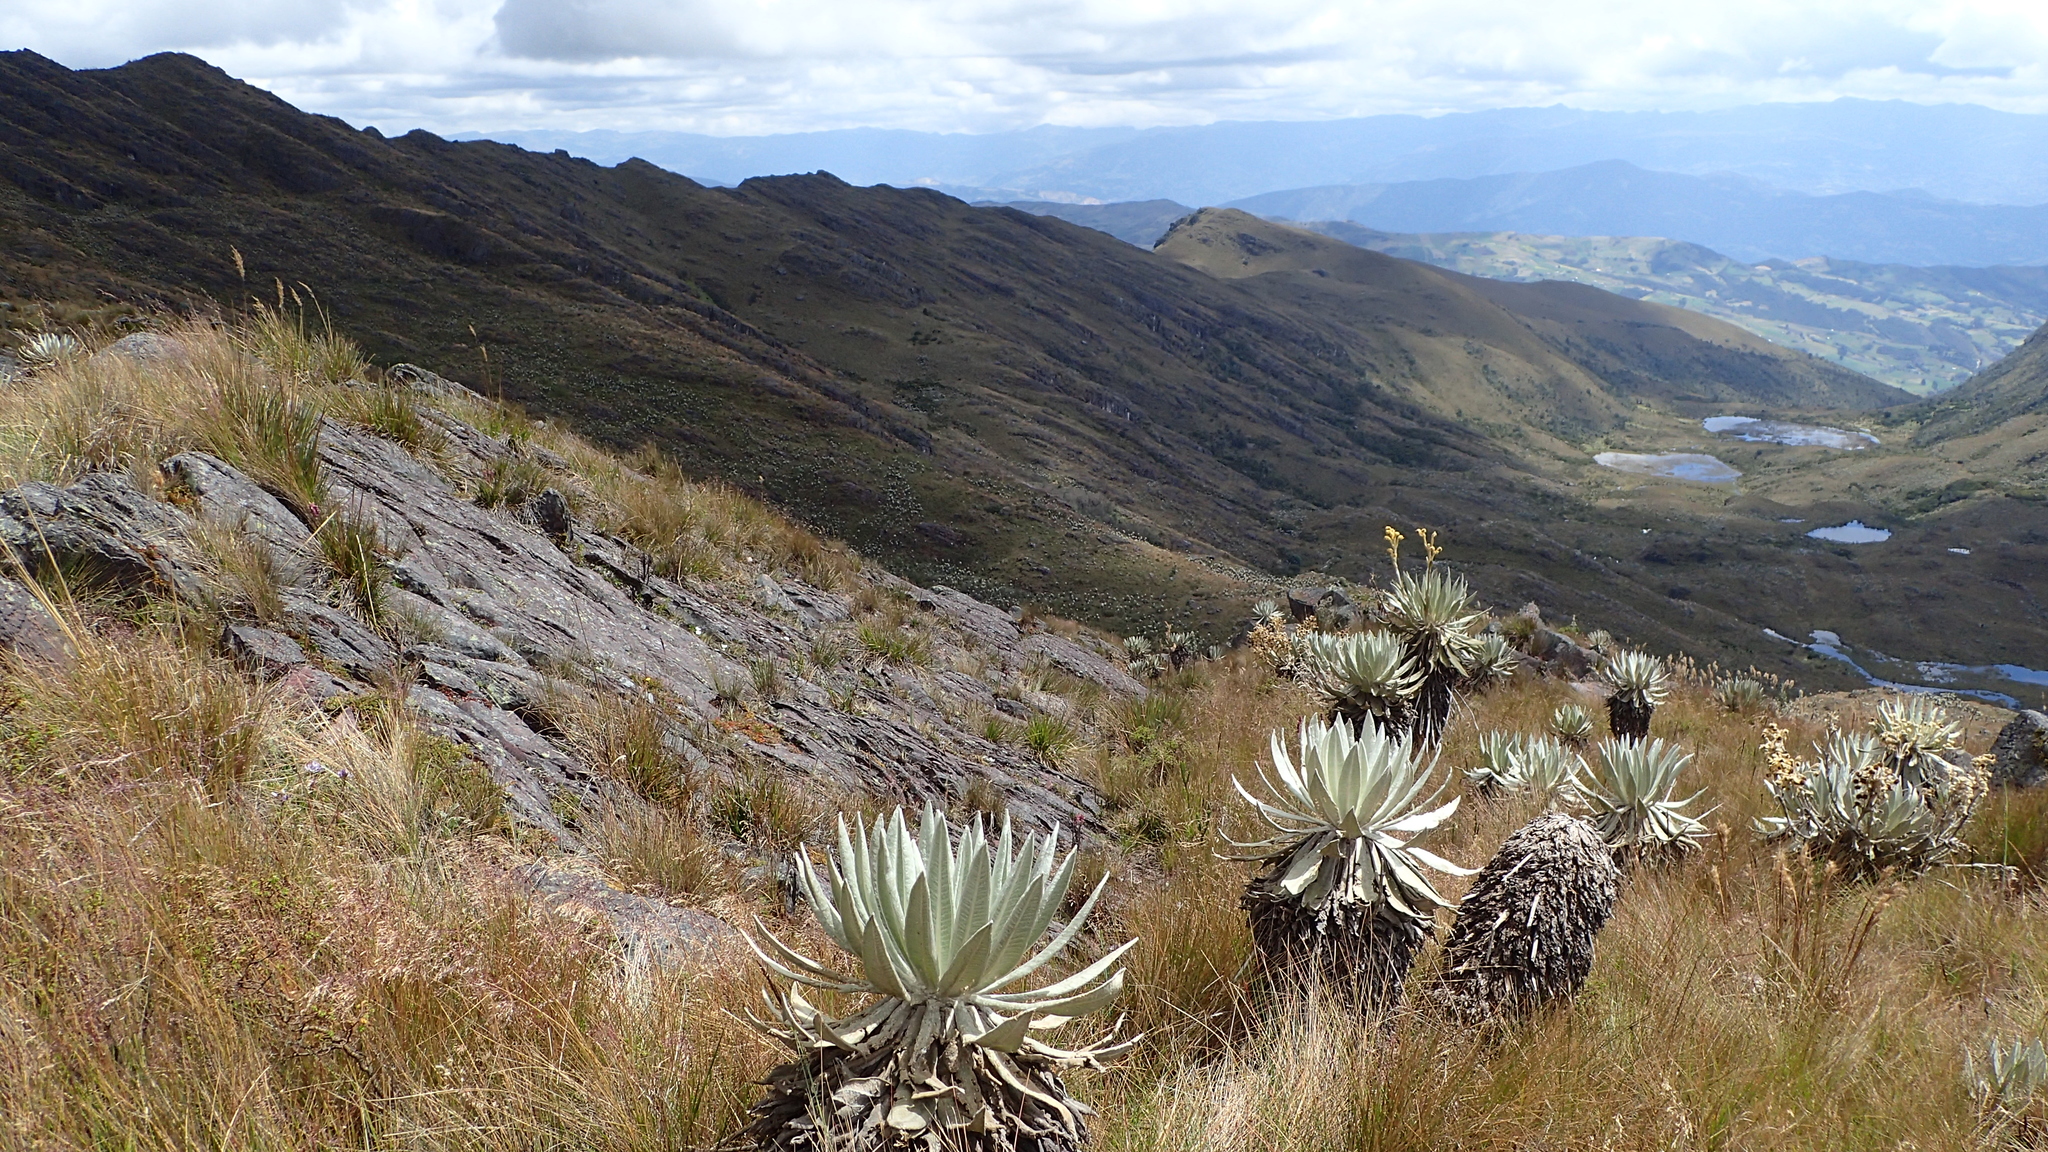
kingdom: Plantae
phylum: Tracheophyta
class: Magnoliopsida
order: Asterales
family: Asteraceae
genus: Espeletia
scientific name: Espeletia azucarina
